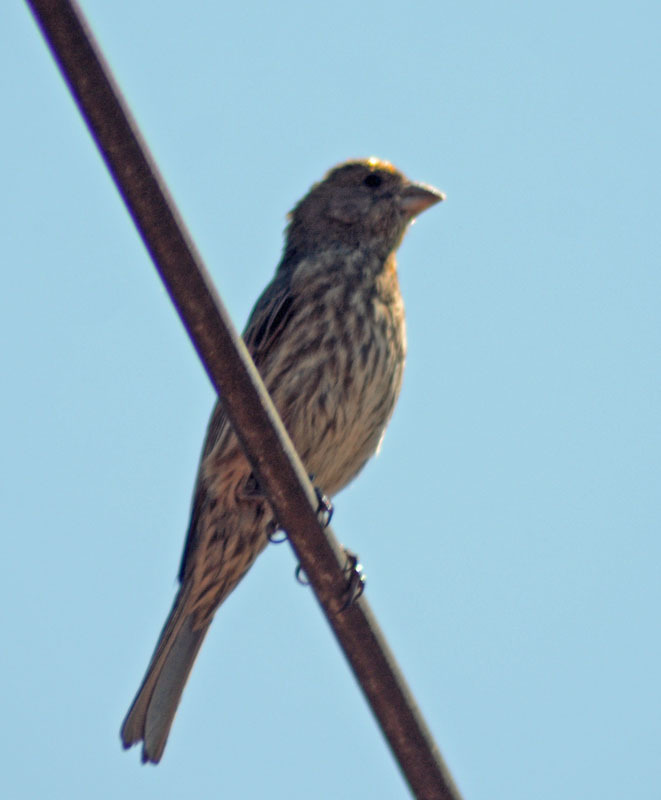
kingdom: Animalia
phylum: Chordata
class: Aves
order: Passeriformes
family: Fringillidae
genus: Haemorhous
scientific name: Haemorhous mexicanus
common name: House finch
